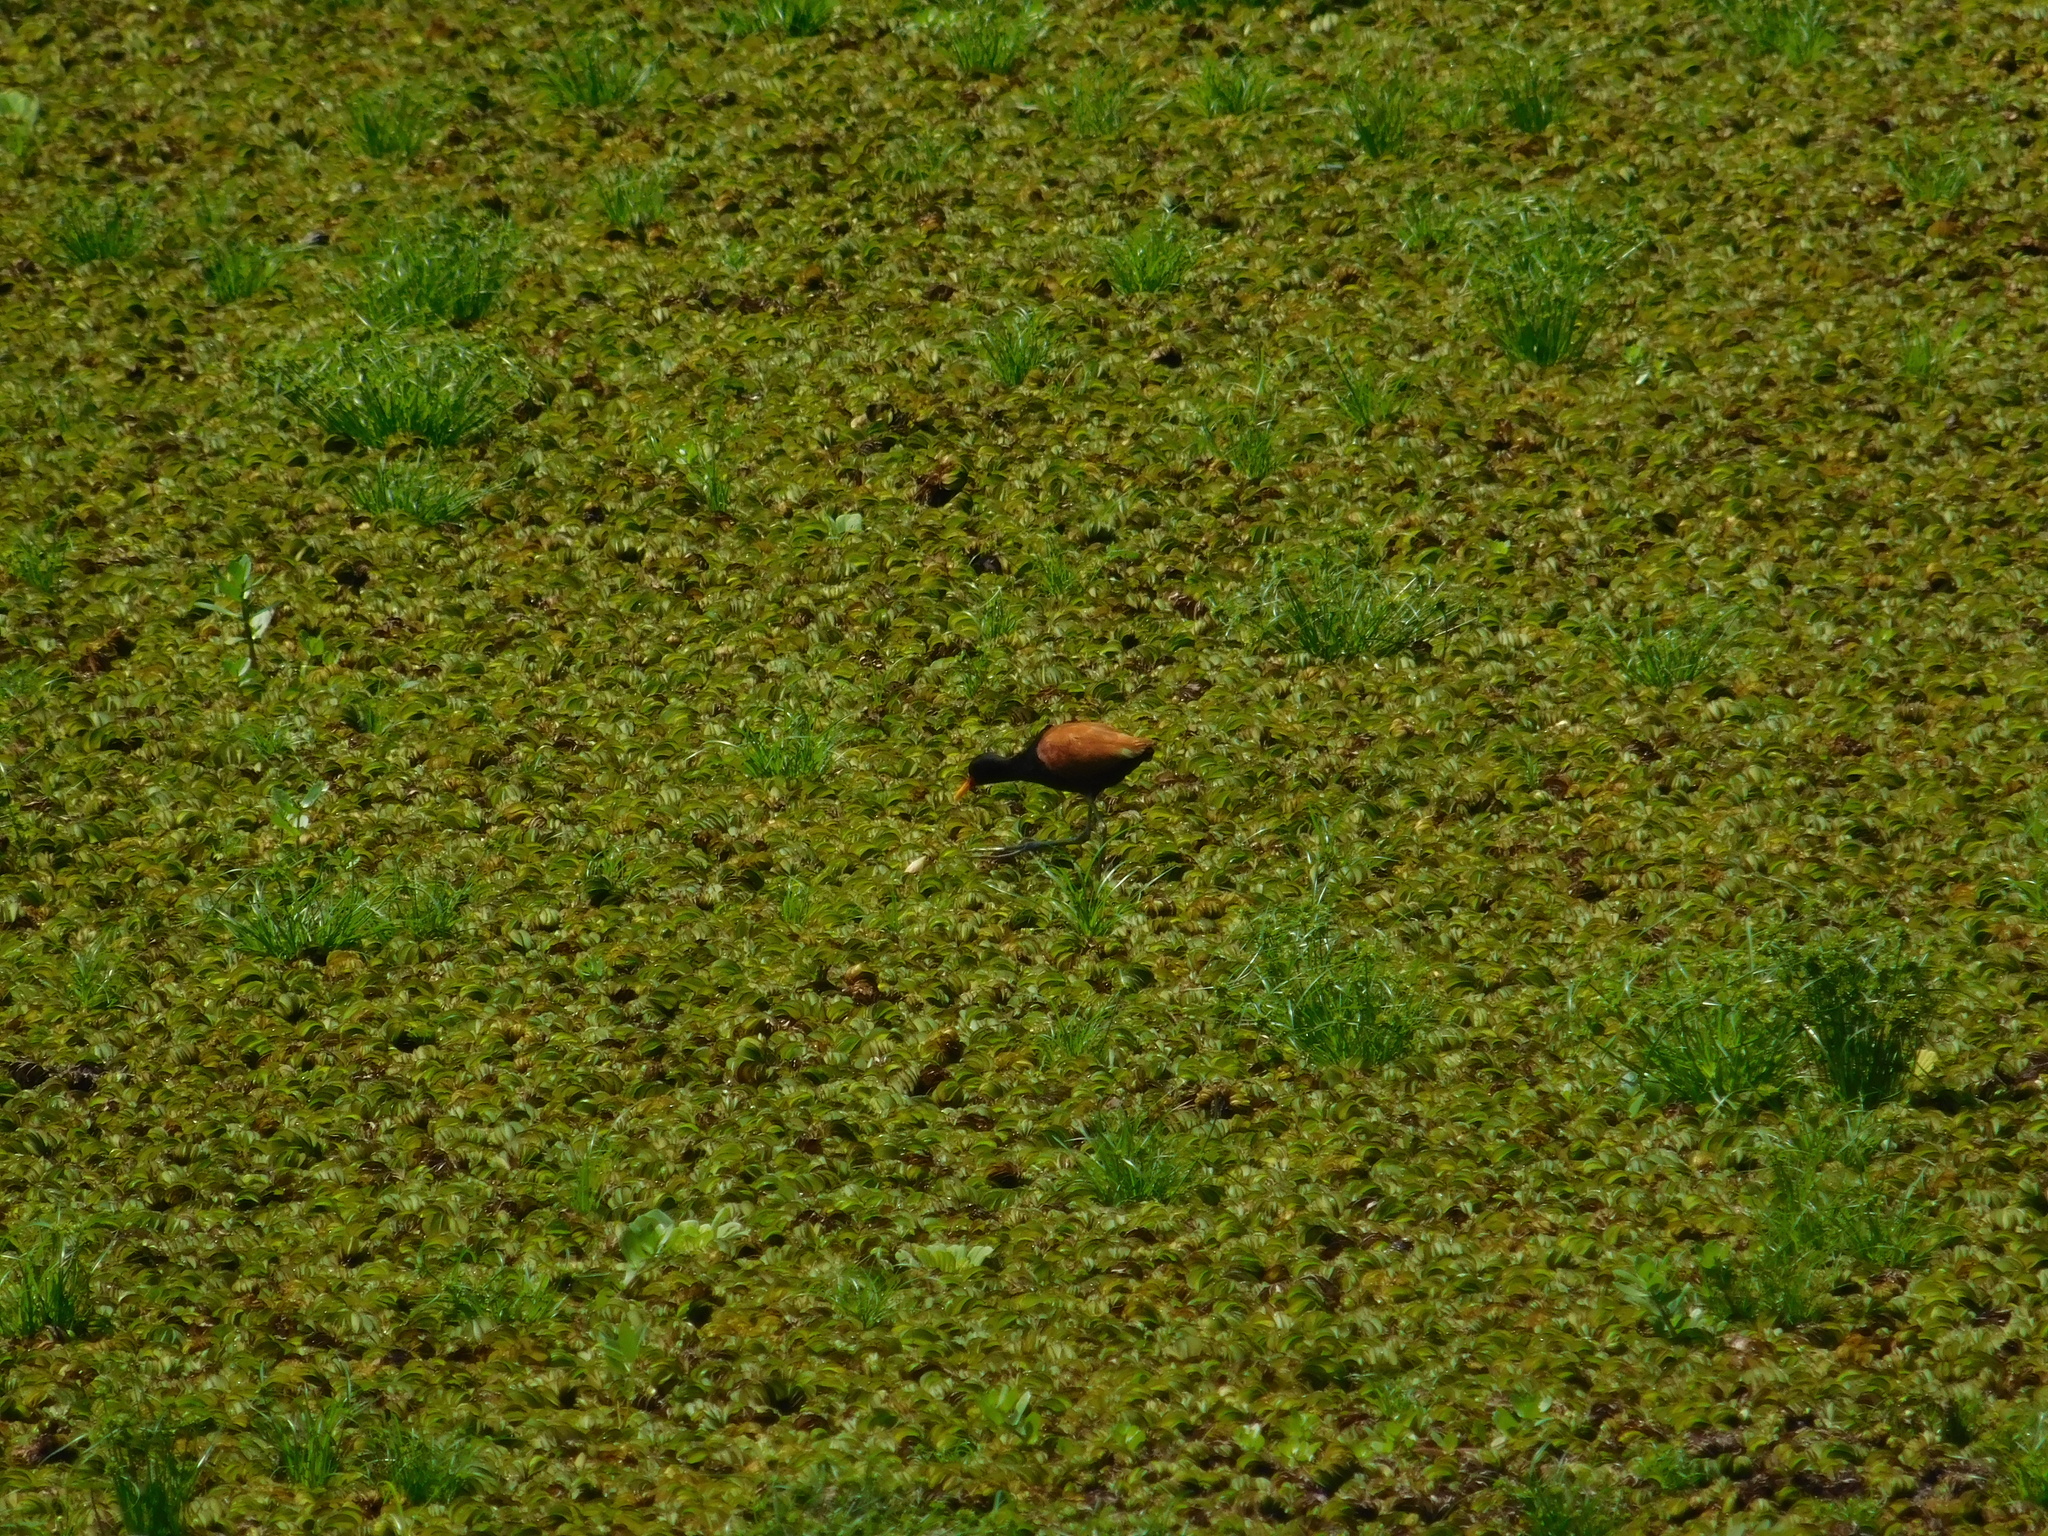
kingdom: Animalia
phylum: Chordata
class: Aves
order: Charadriiformes
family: Jacanidae
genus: Jacana
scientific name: Jacana jacana
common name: Wattled jacana
